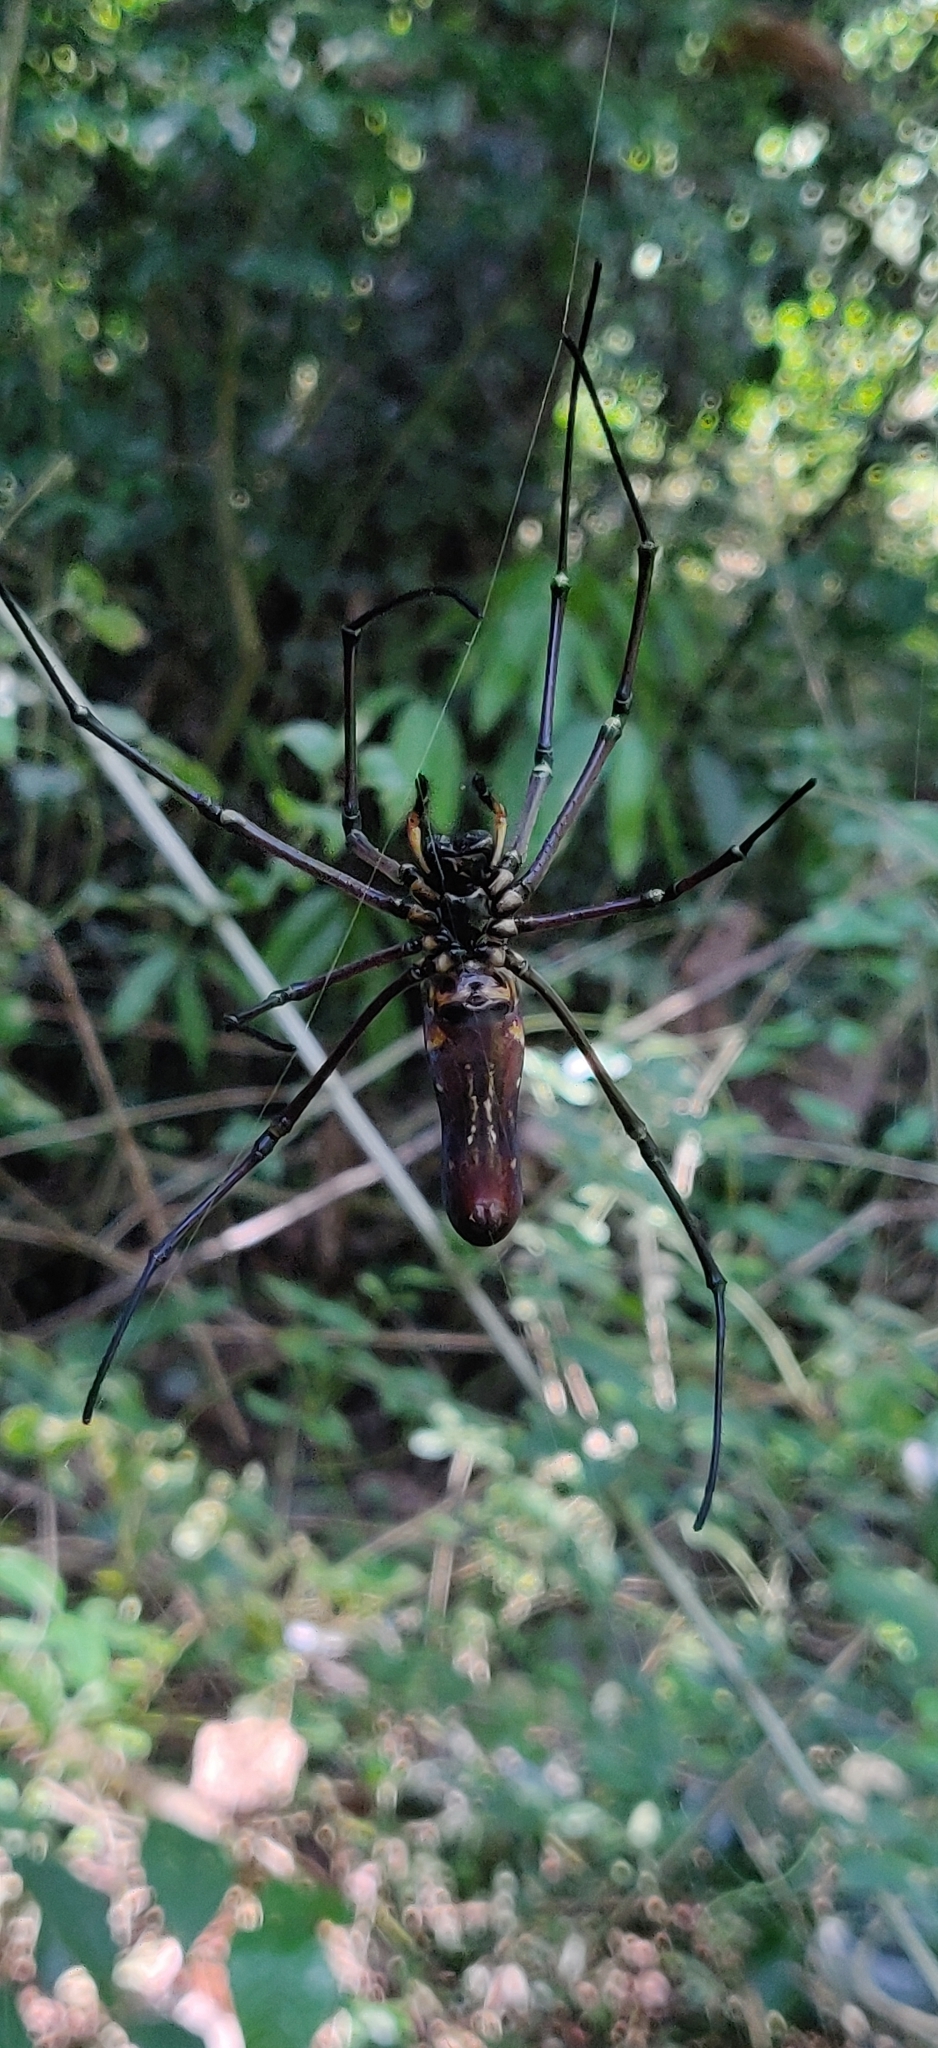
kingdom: Animalia
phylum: Arthropoda
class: Arachnida
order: Araneae
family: Araneidae
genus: Nephila
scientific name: Nephila pilipes
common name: Giant golden orb weaver
